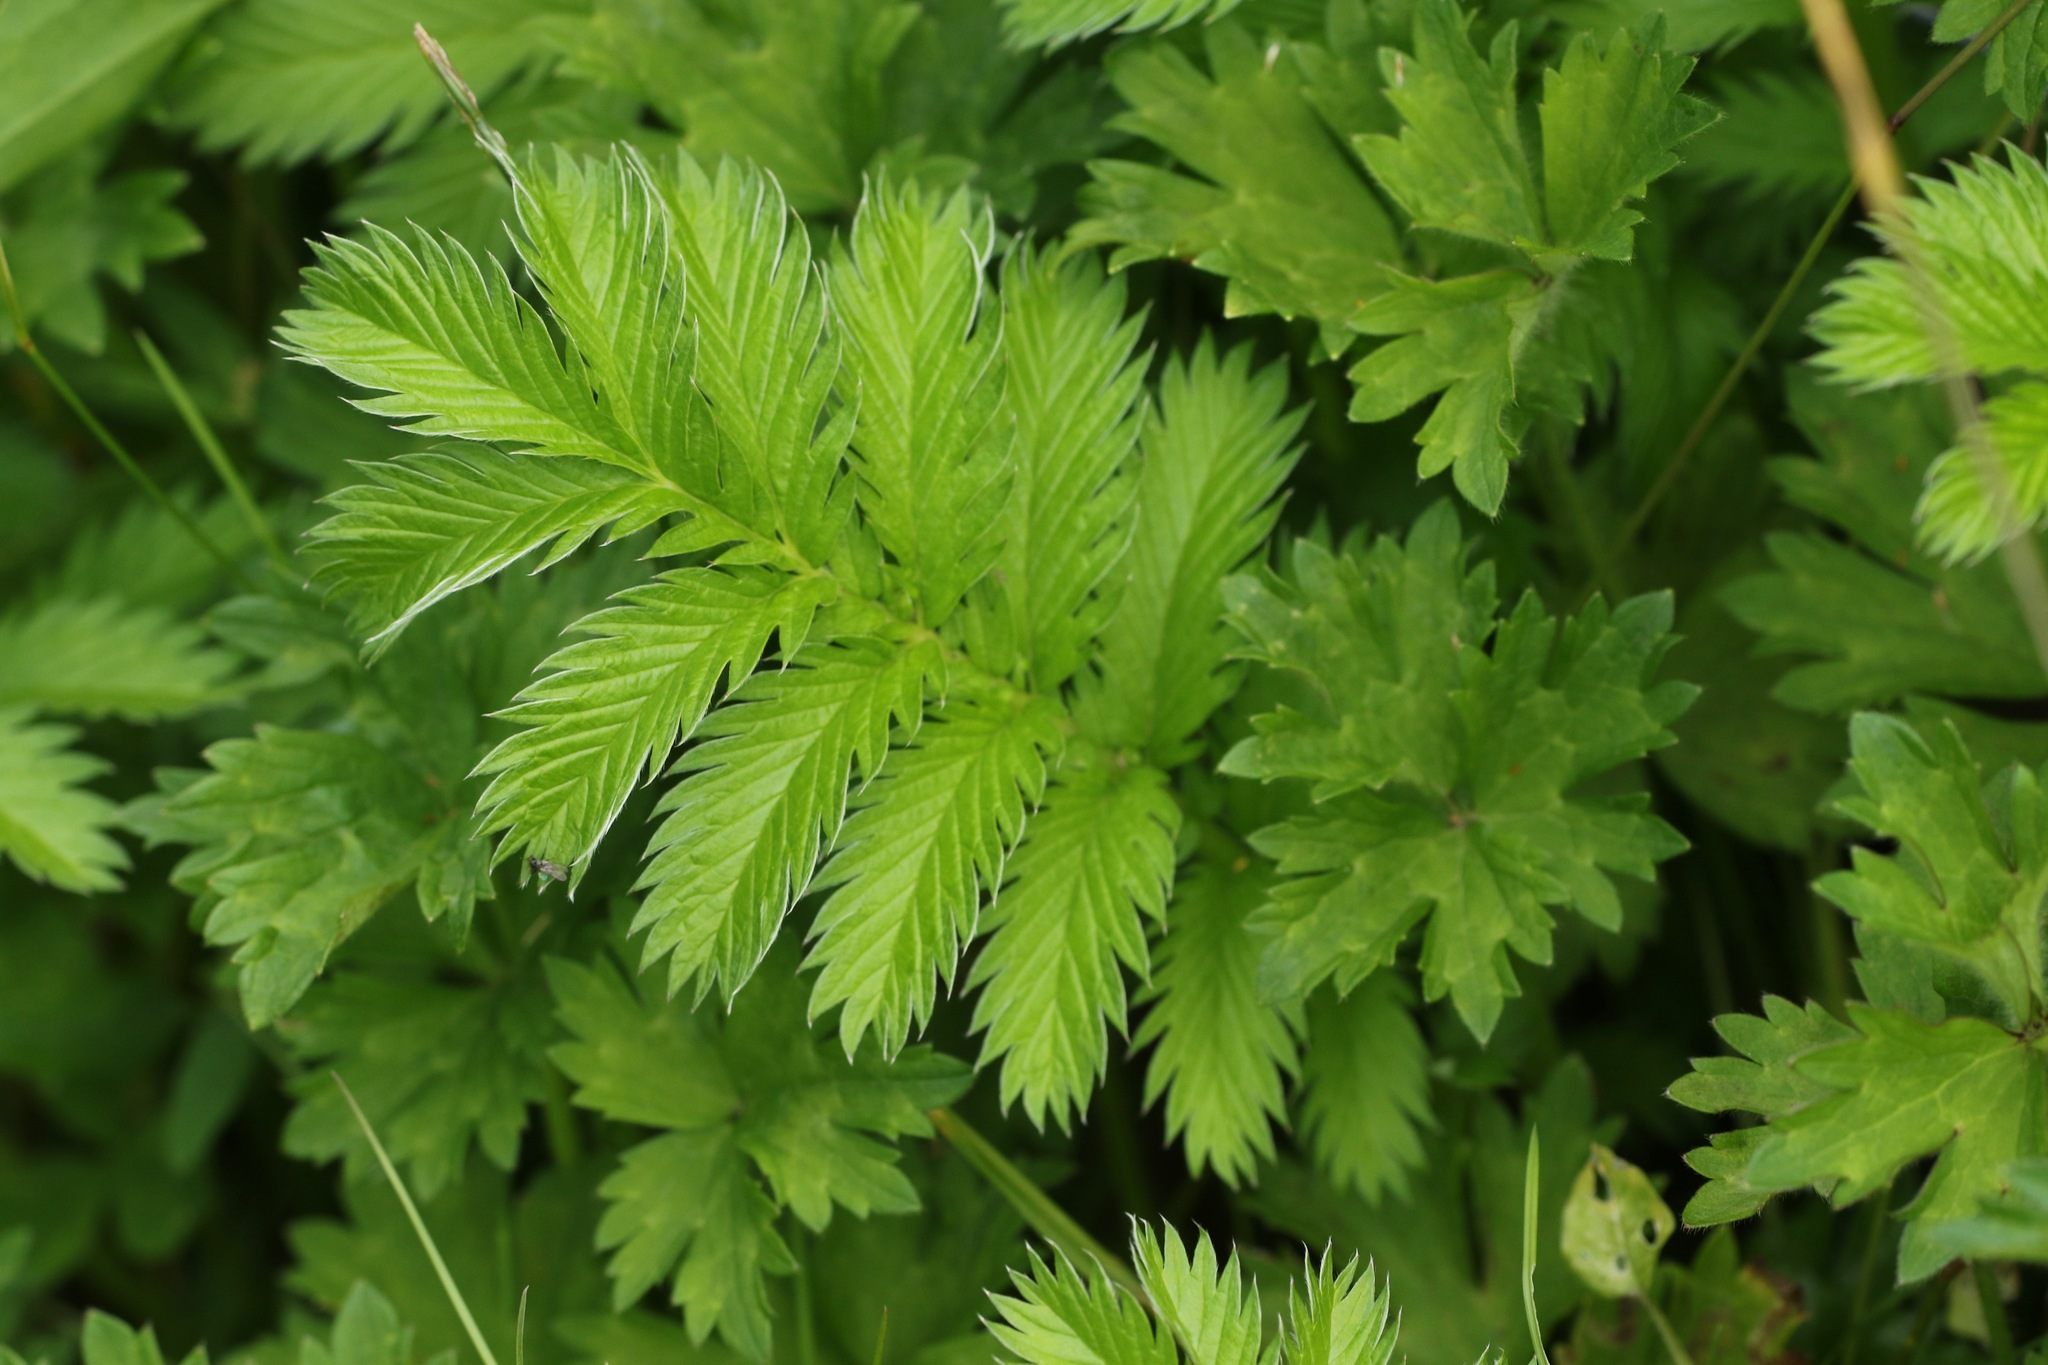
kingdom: Plantae
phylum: Tracheophyta
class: Magnoliopsida
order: Rosales
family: Rosaceae
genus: Argentina
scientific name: Argentina anserina
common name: Common silverweed
